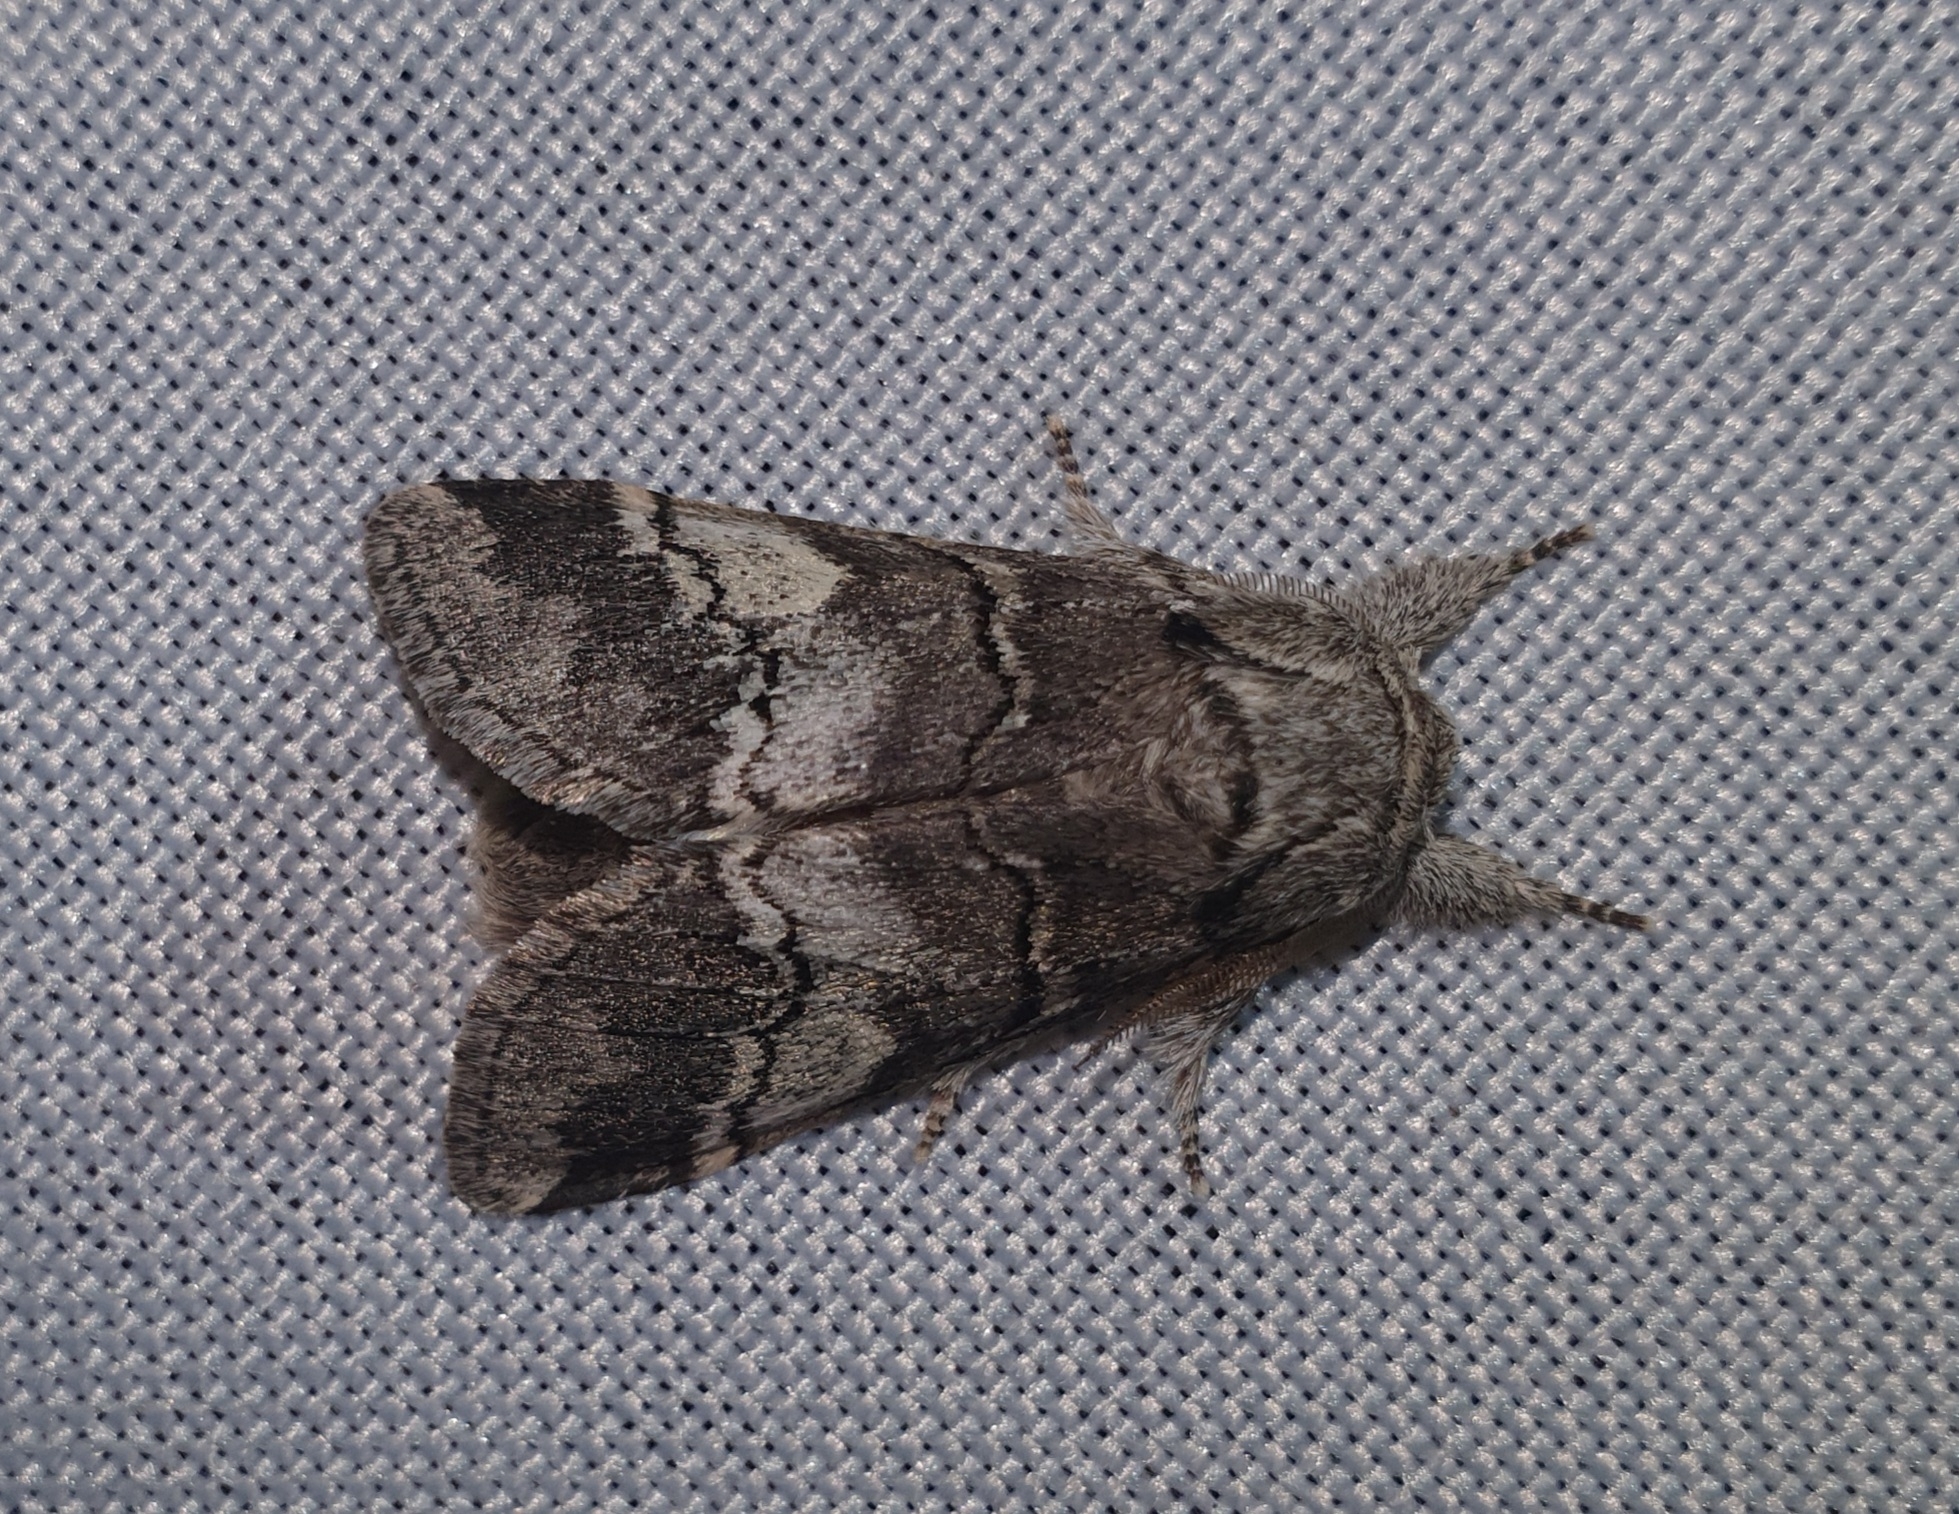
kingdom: Animalia
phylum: Arthropoda
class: Insecta
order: Lepidoptera
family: Notodontidae
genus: Drymonia
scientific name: Drymonia querna
